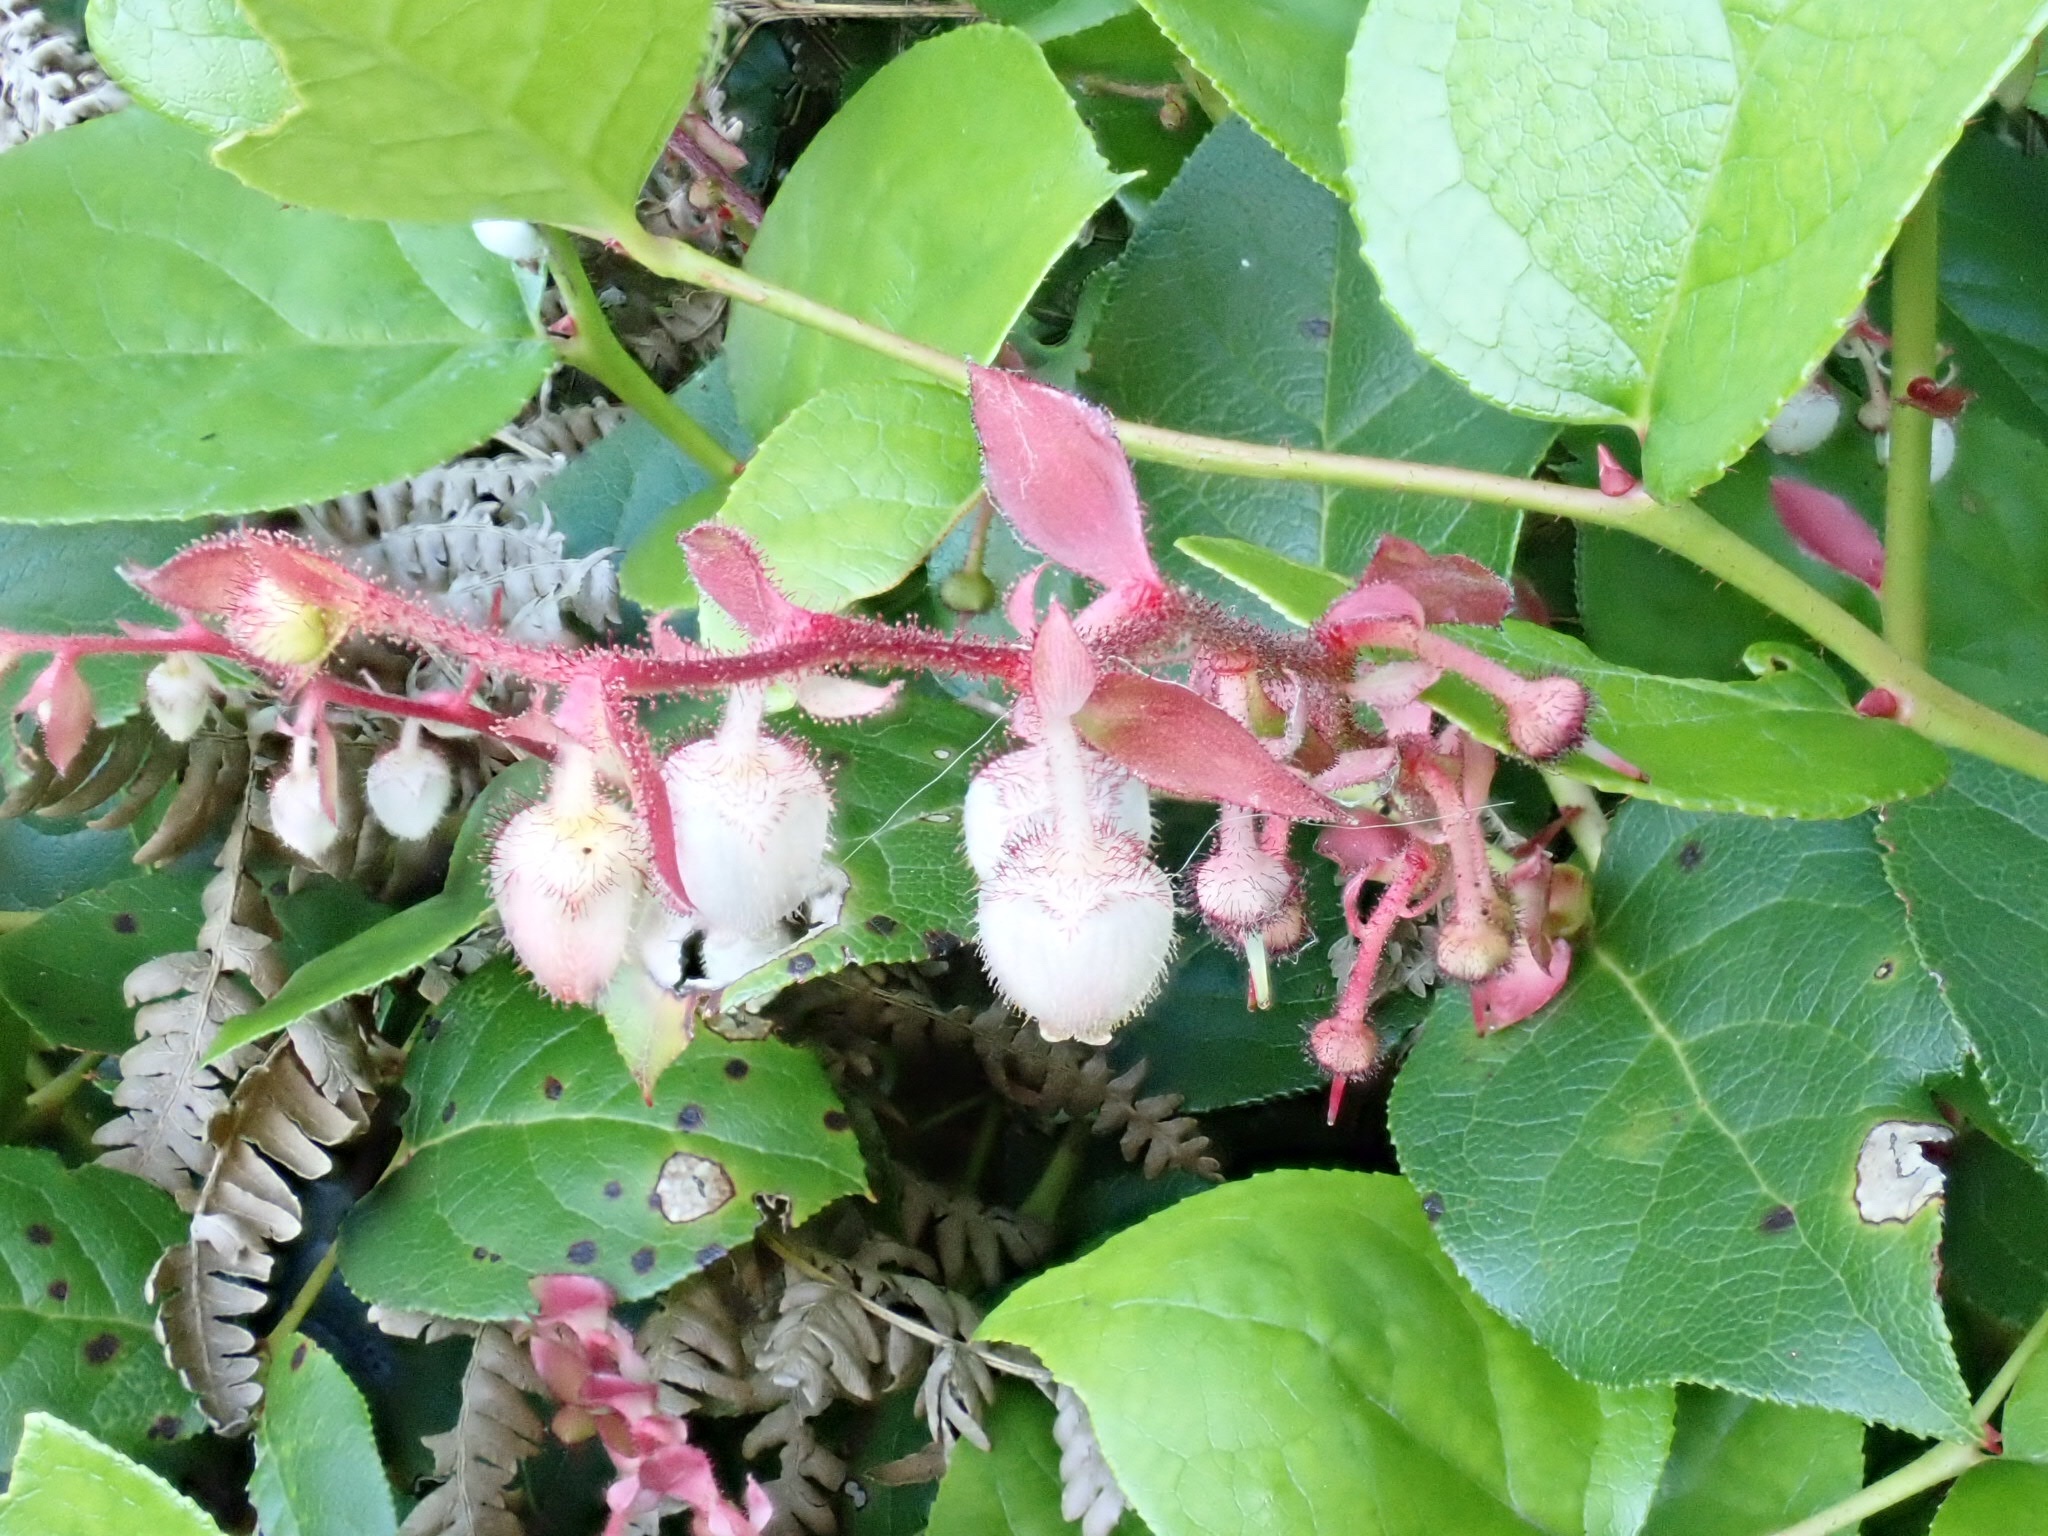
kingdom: Plantae
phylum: Tracheophyta
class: Magnoliopsida
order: Ericales
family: Ericaceae
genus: Gaultheria
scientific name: Gaultheria shallon
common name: Shallon
